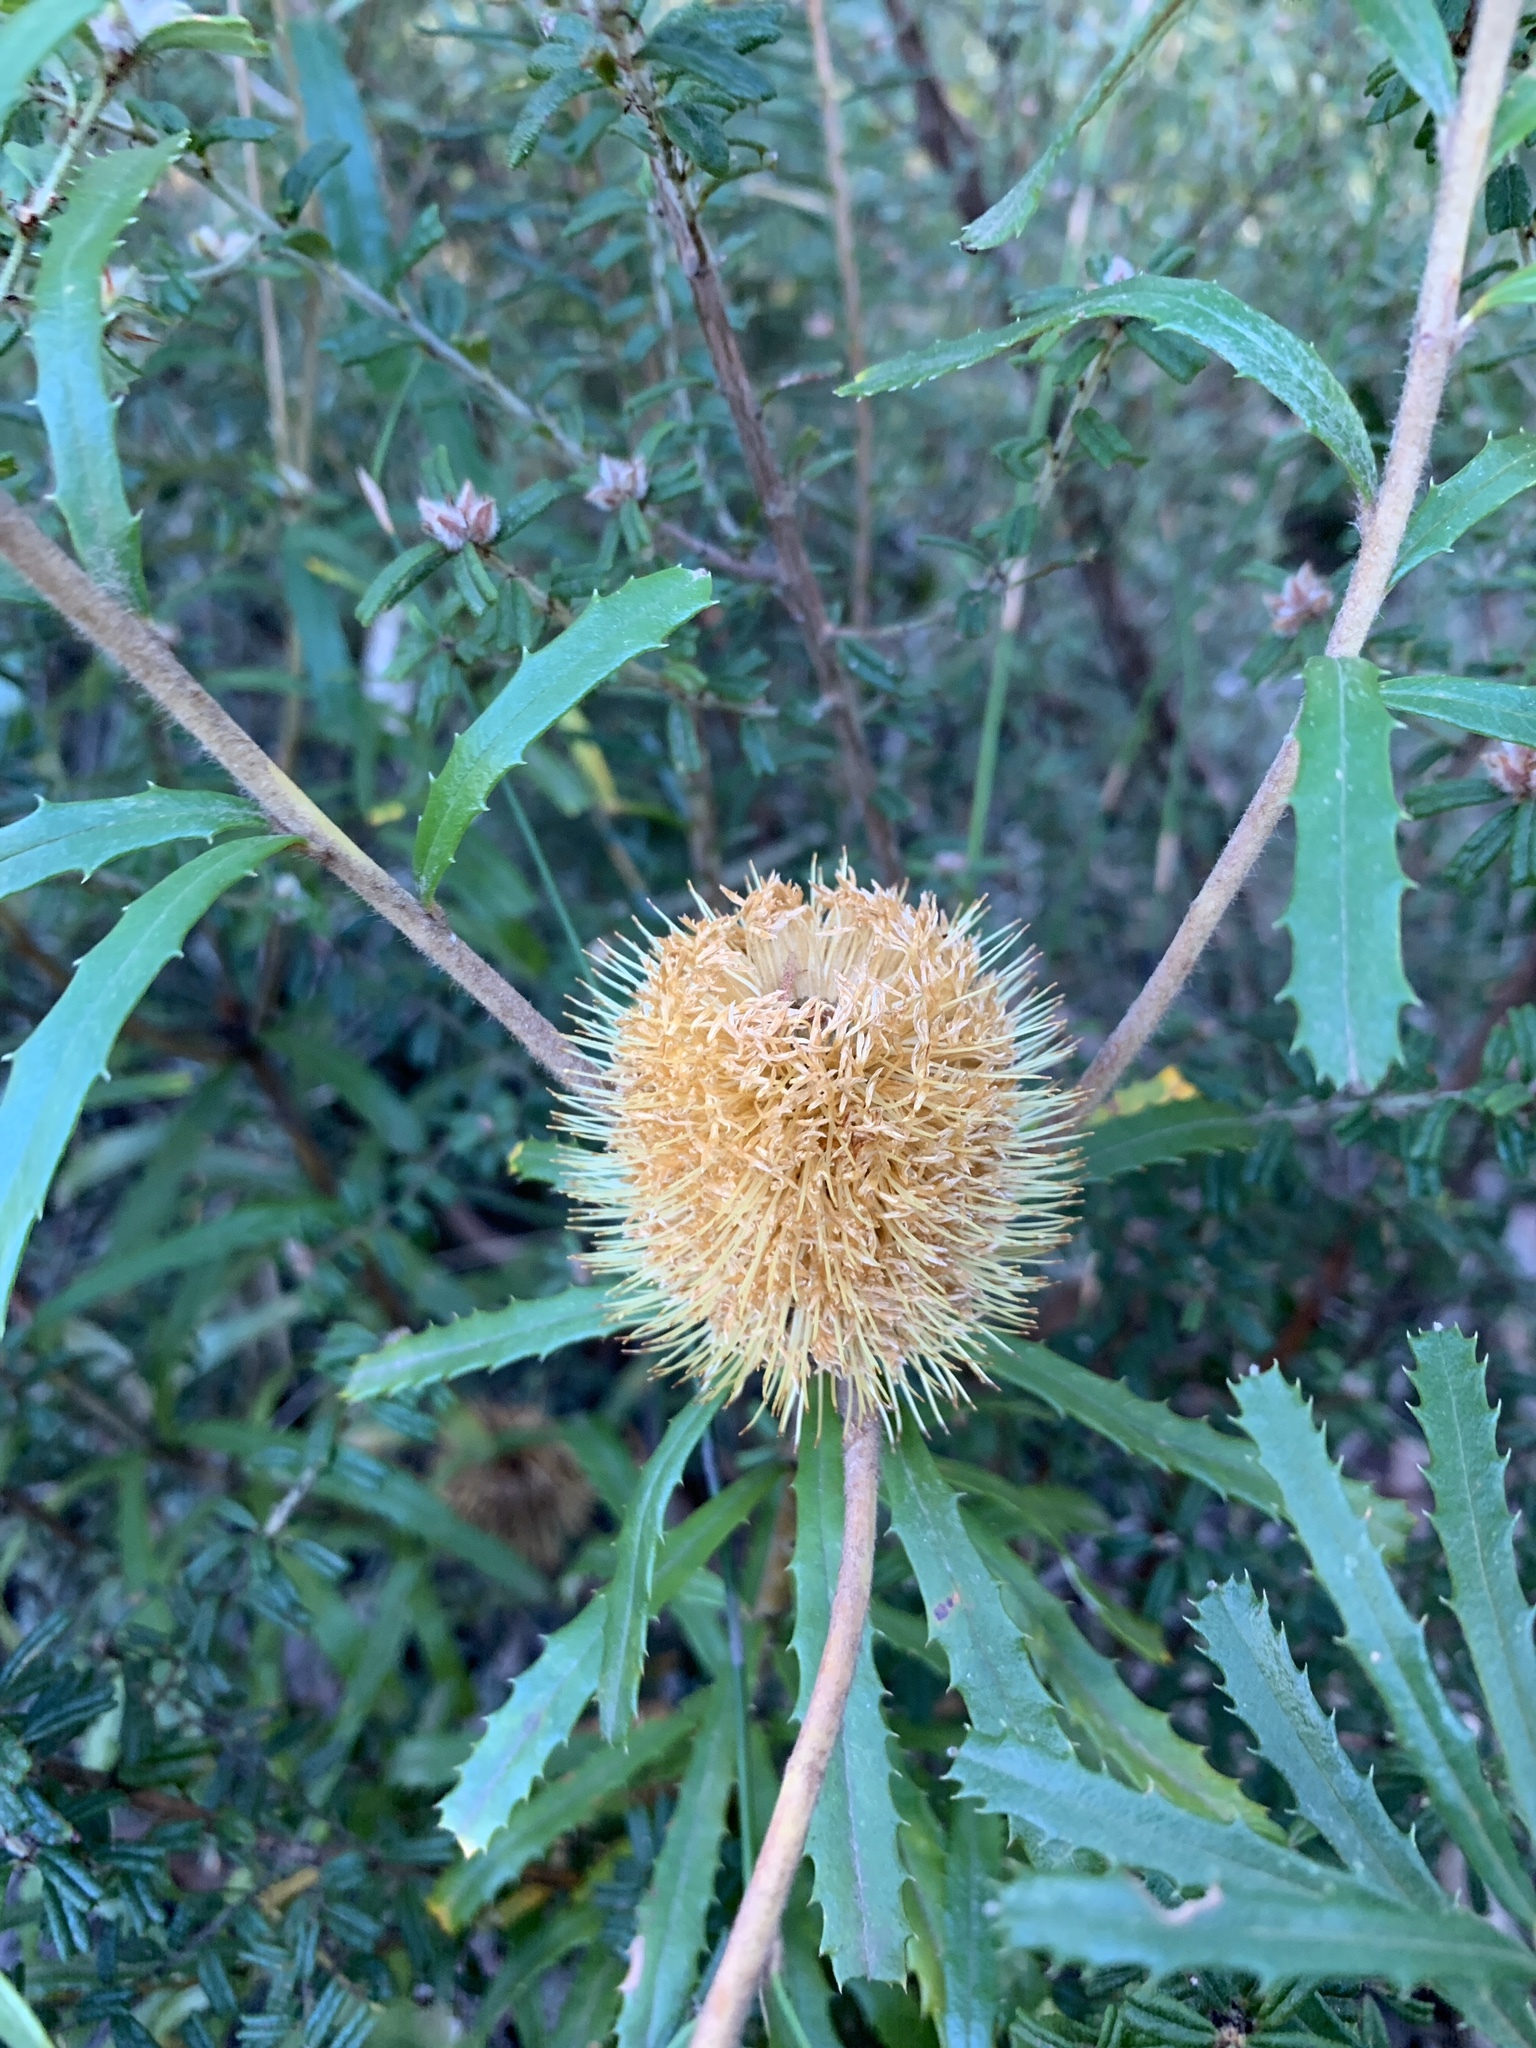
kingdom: Plantae
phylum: Tracheophyta
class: Magnoliopsida
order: Proteales
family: Proteaceae
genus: Banksia
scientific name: Banksia marginata
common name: Silver banksia
